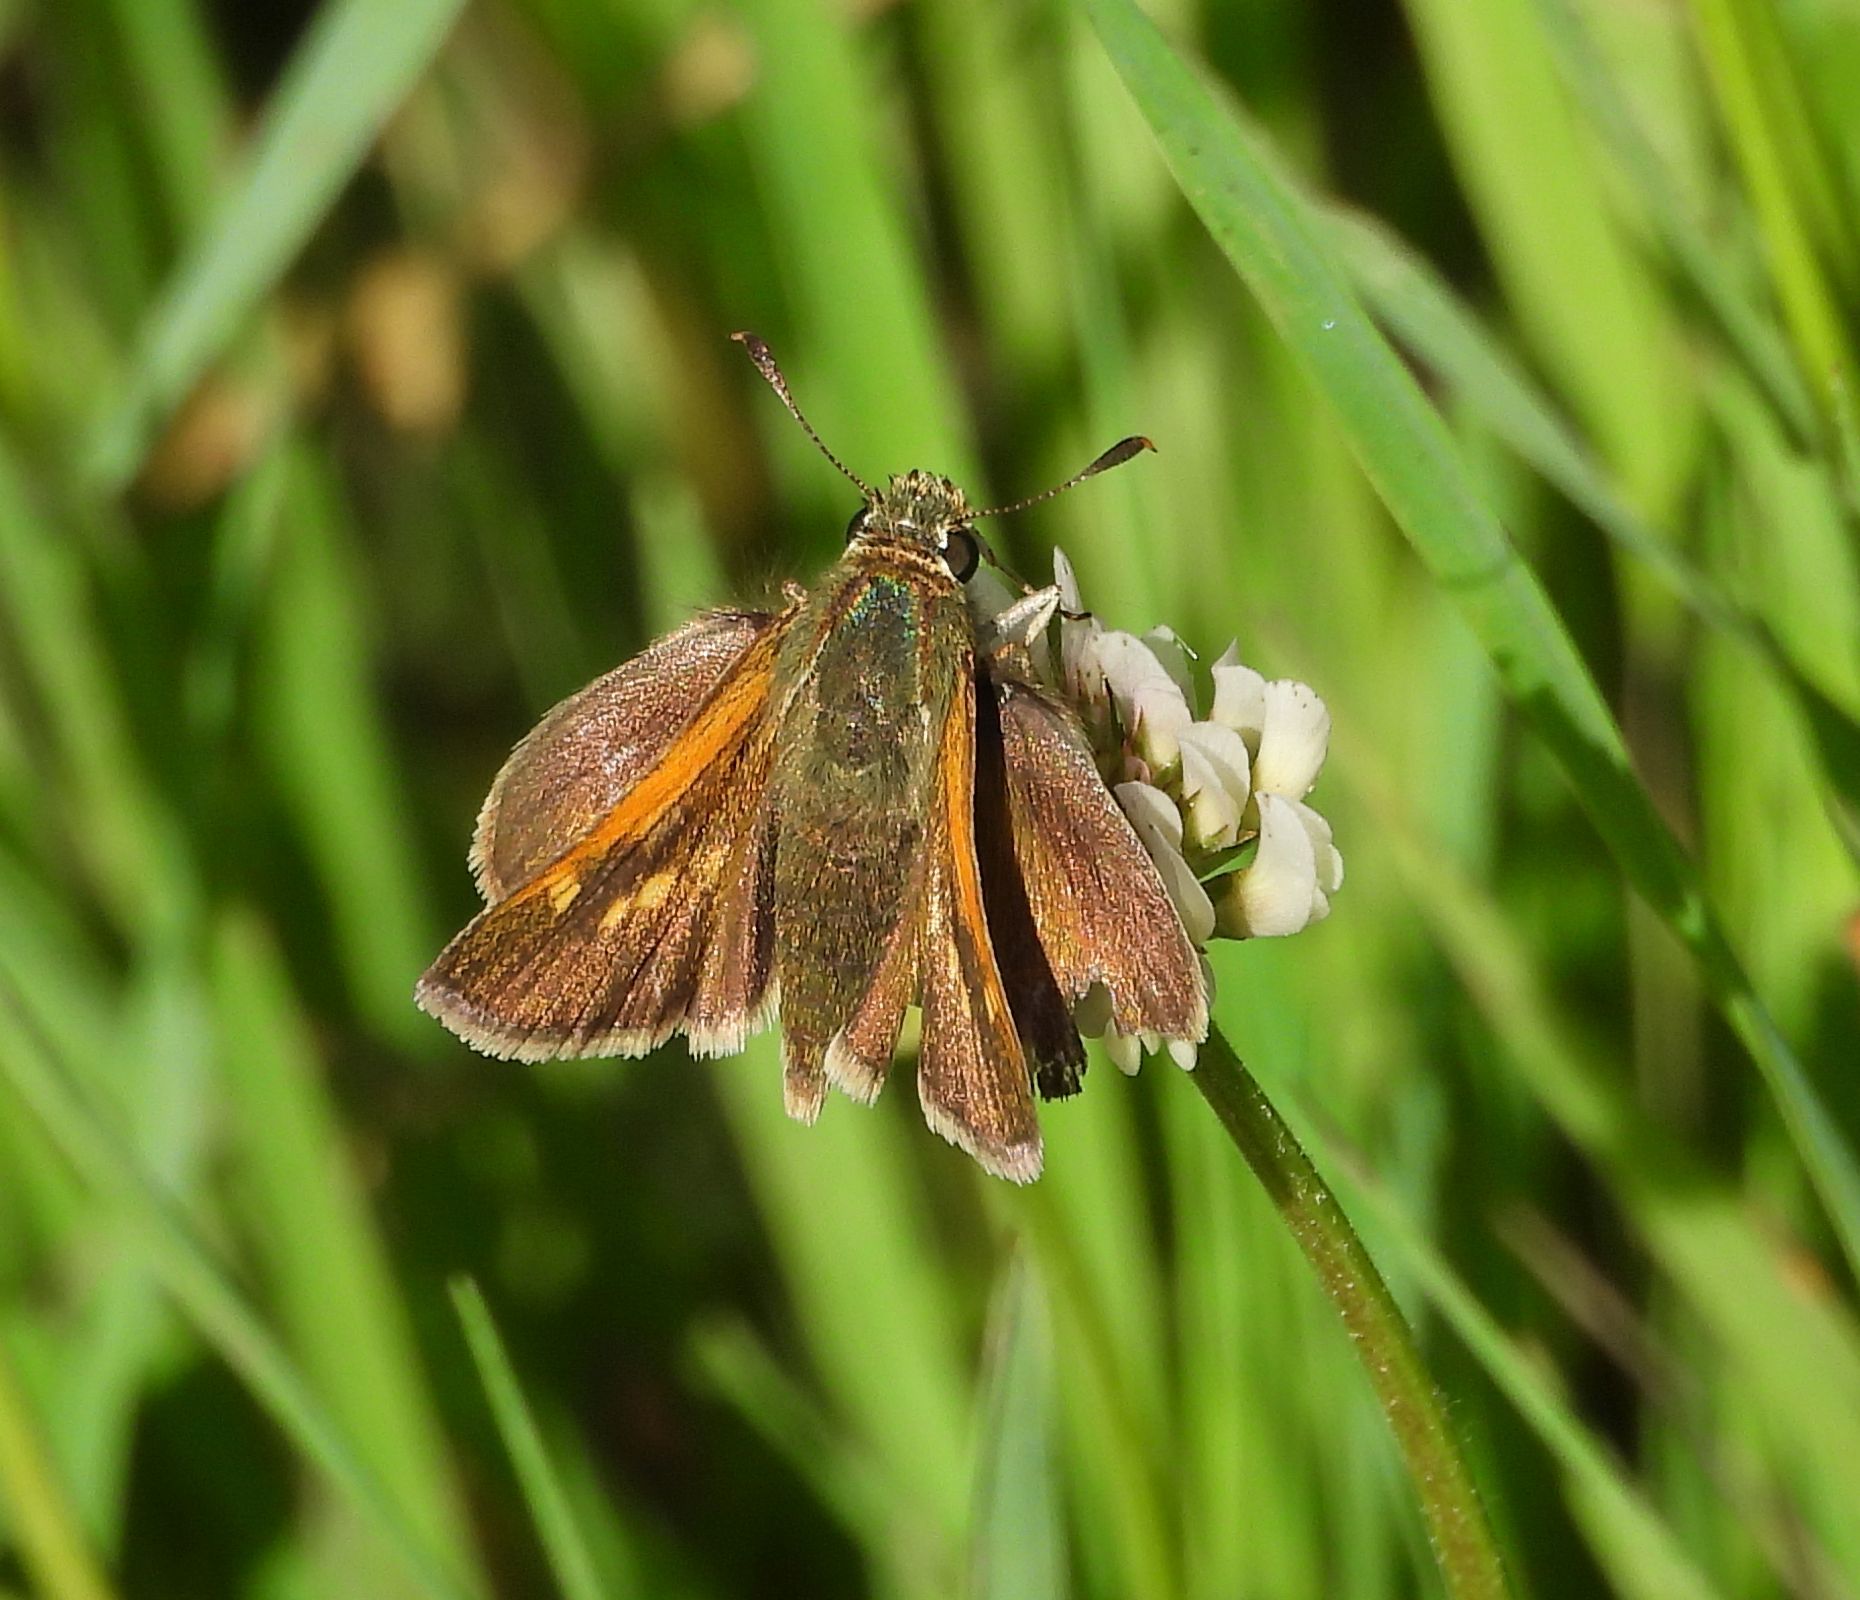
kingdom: Animalia
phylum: Arthropoda
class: Insecta
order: Lepidoptera
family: Hesperiidae
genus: Polites
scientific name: Polites themistocles
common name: Tawny-edged skipper
